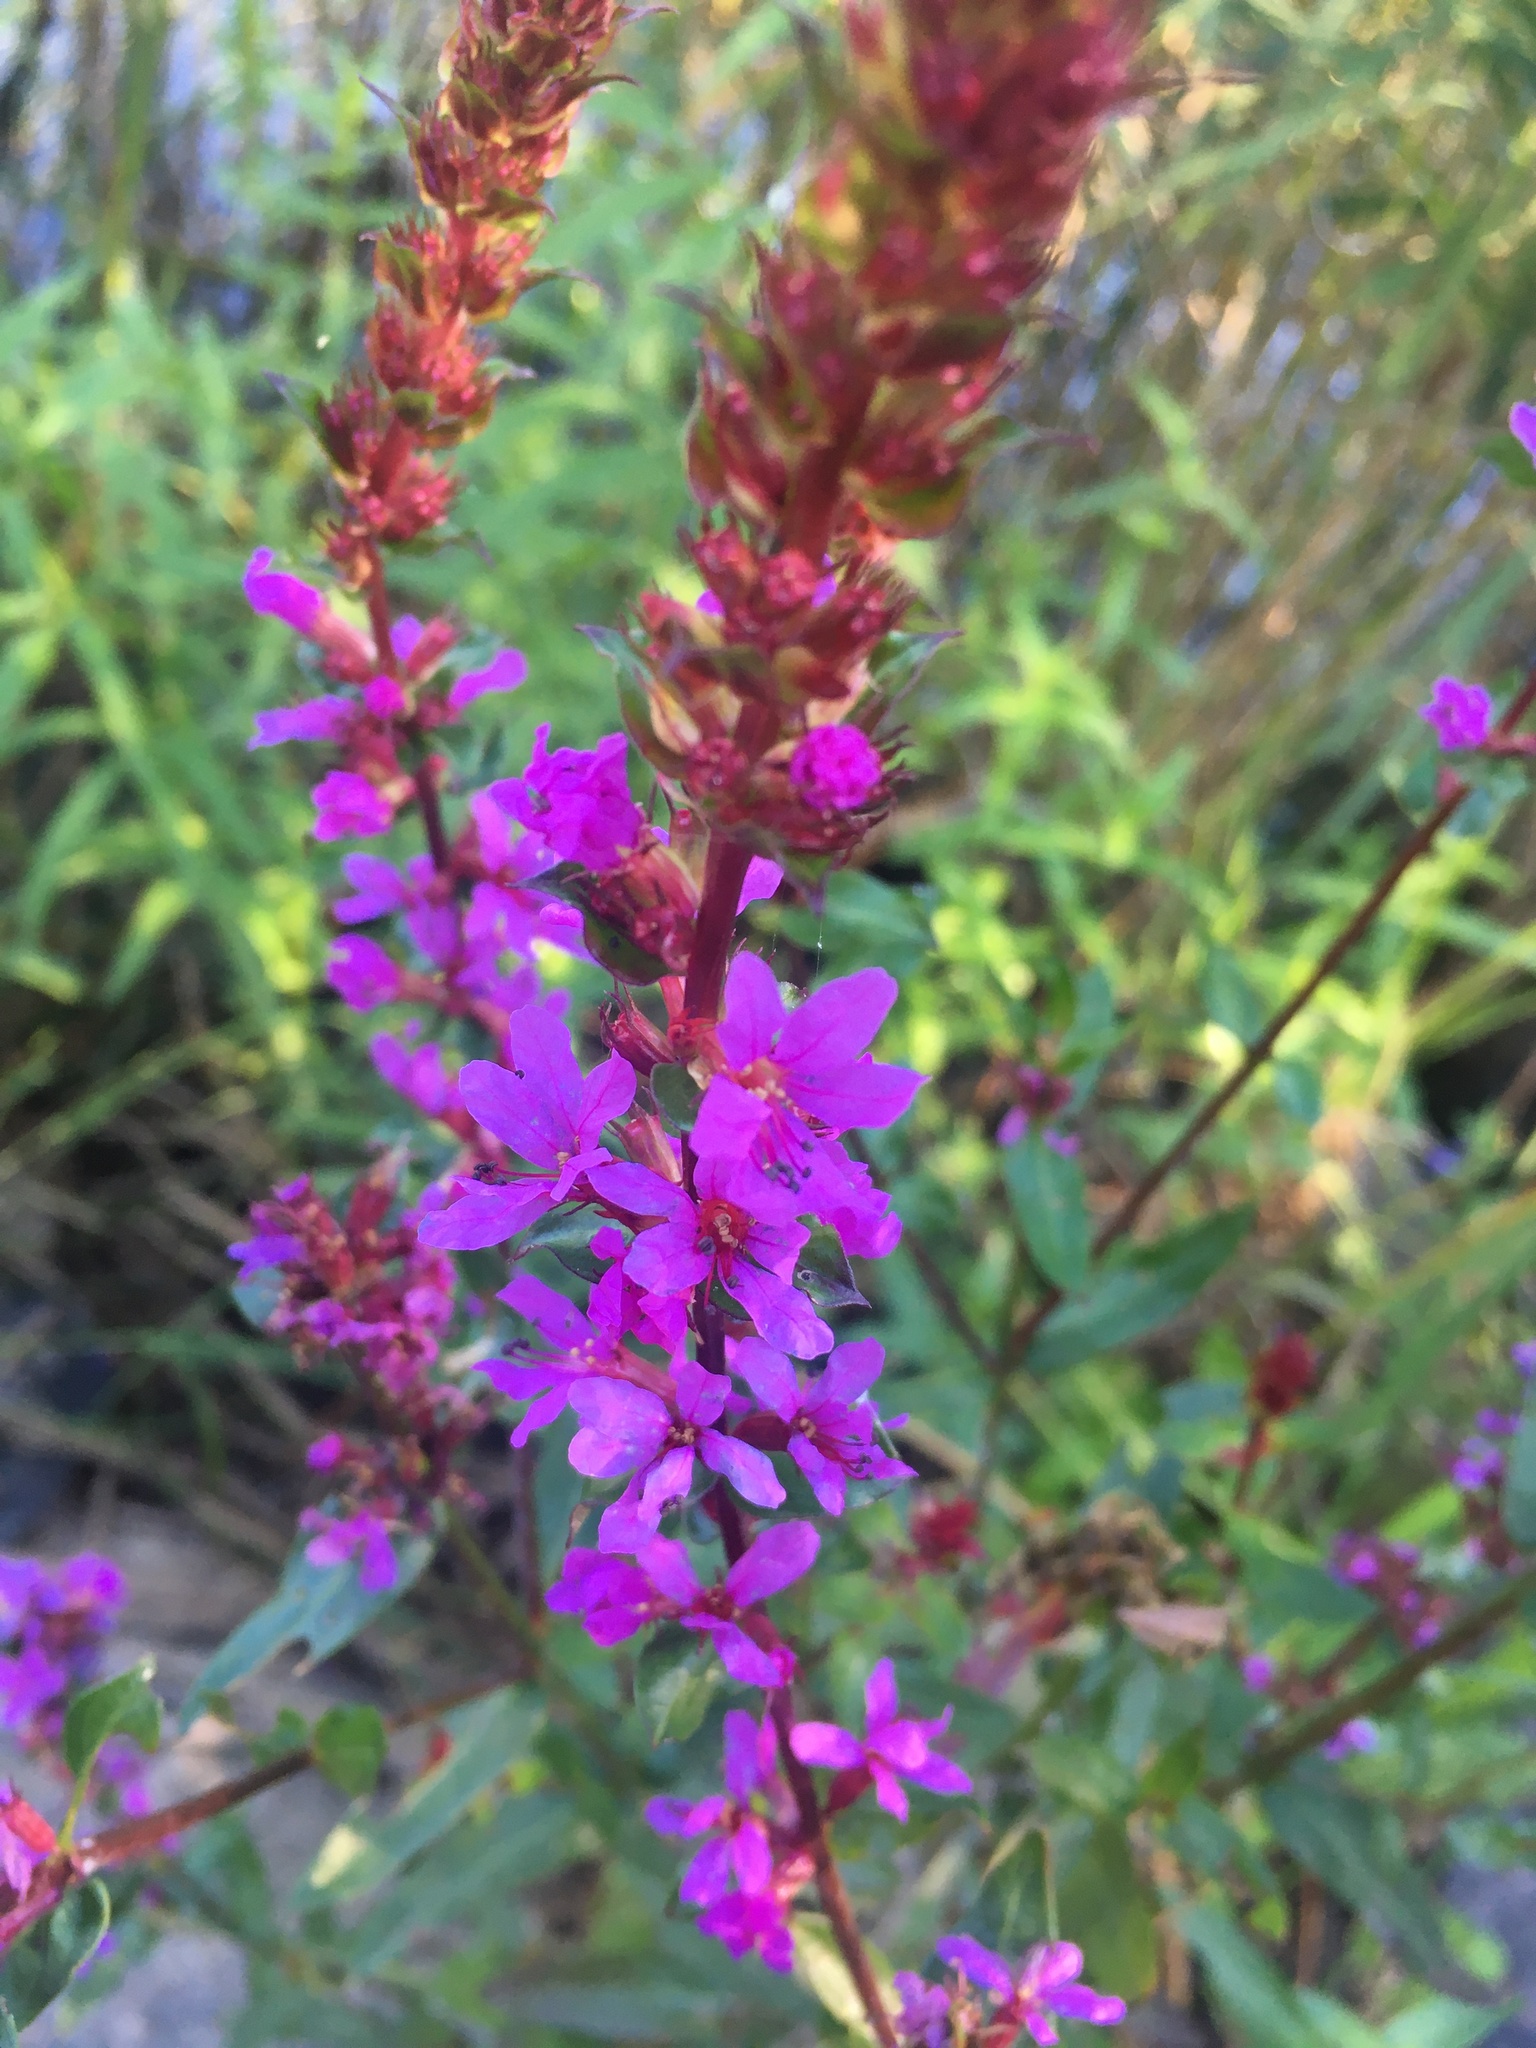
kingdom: Plantae
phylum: Tracheophyta
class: Magnoliopsida
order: Myrtales
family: Lythraceae
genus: Lythrum
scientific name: Lythrum salicaria
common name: Purple loosestrife
